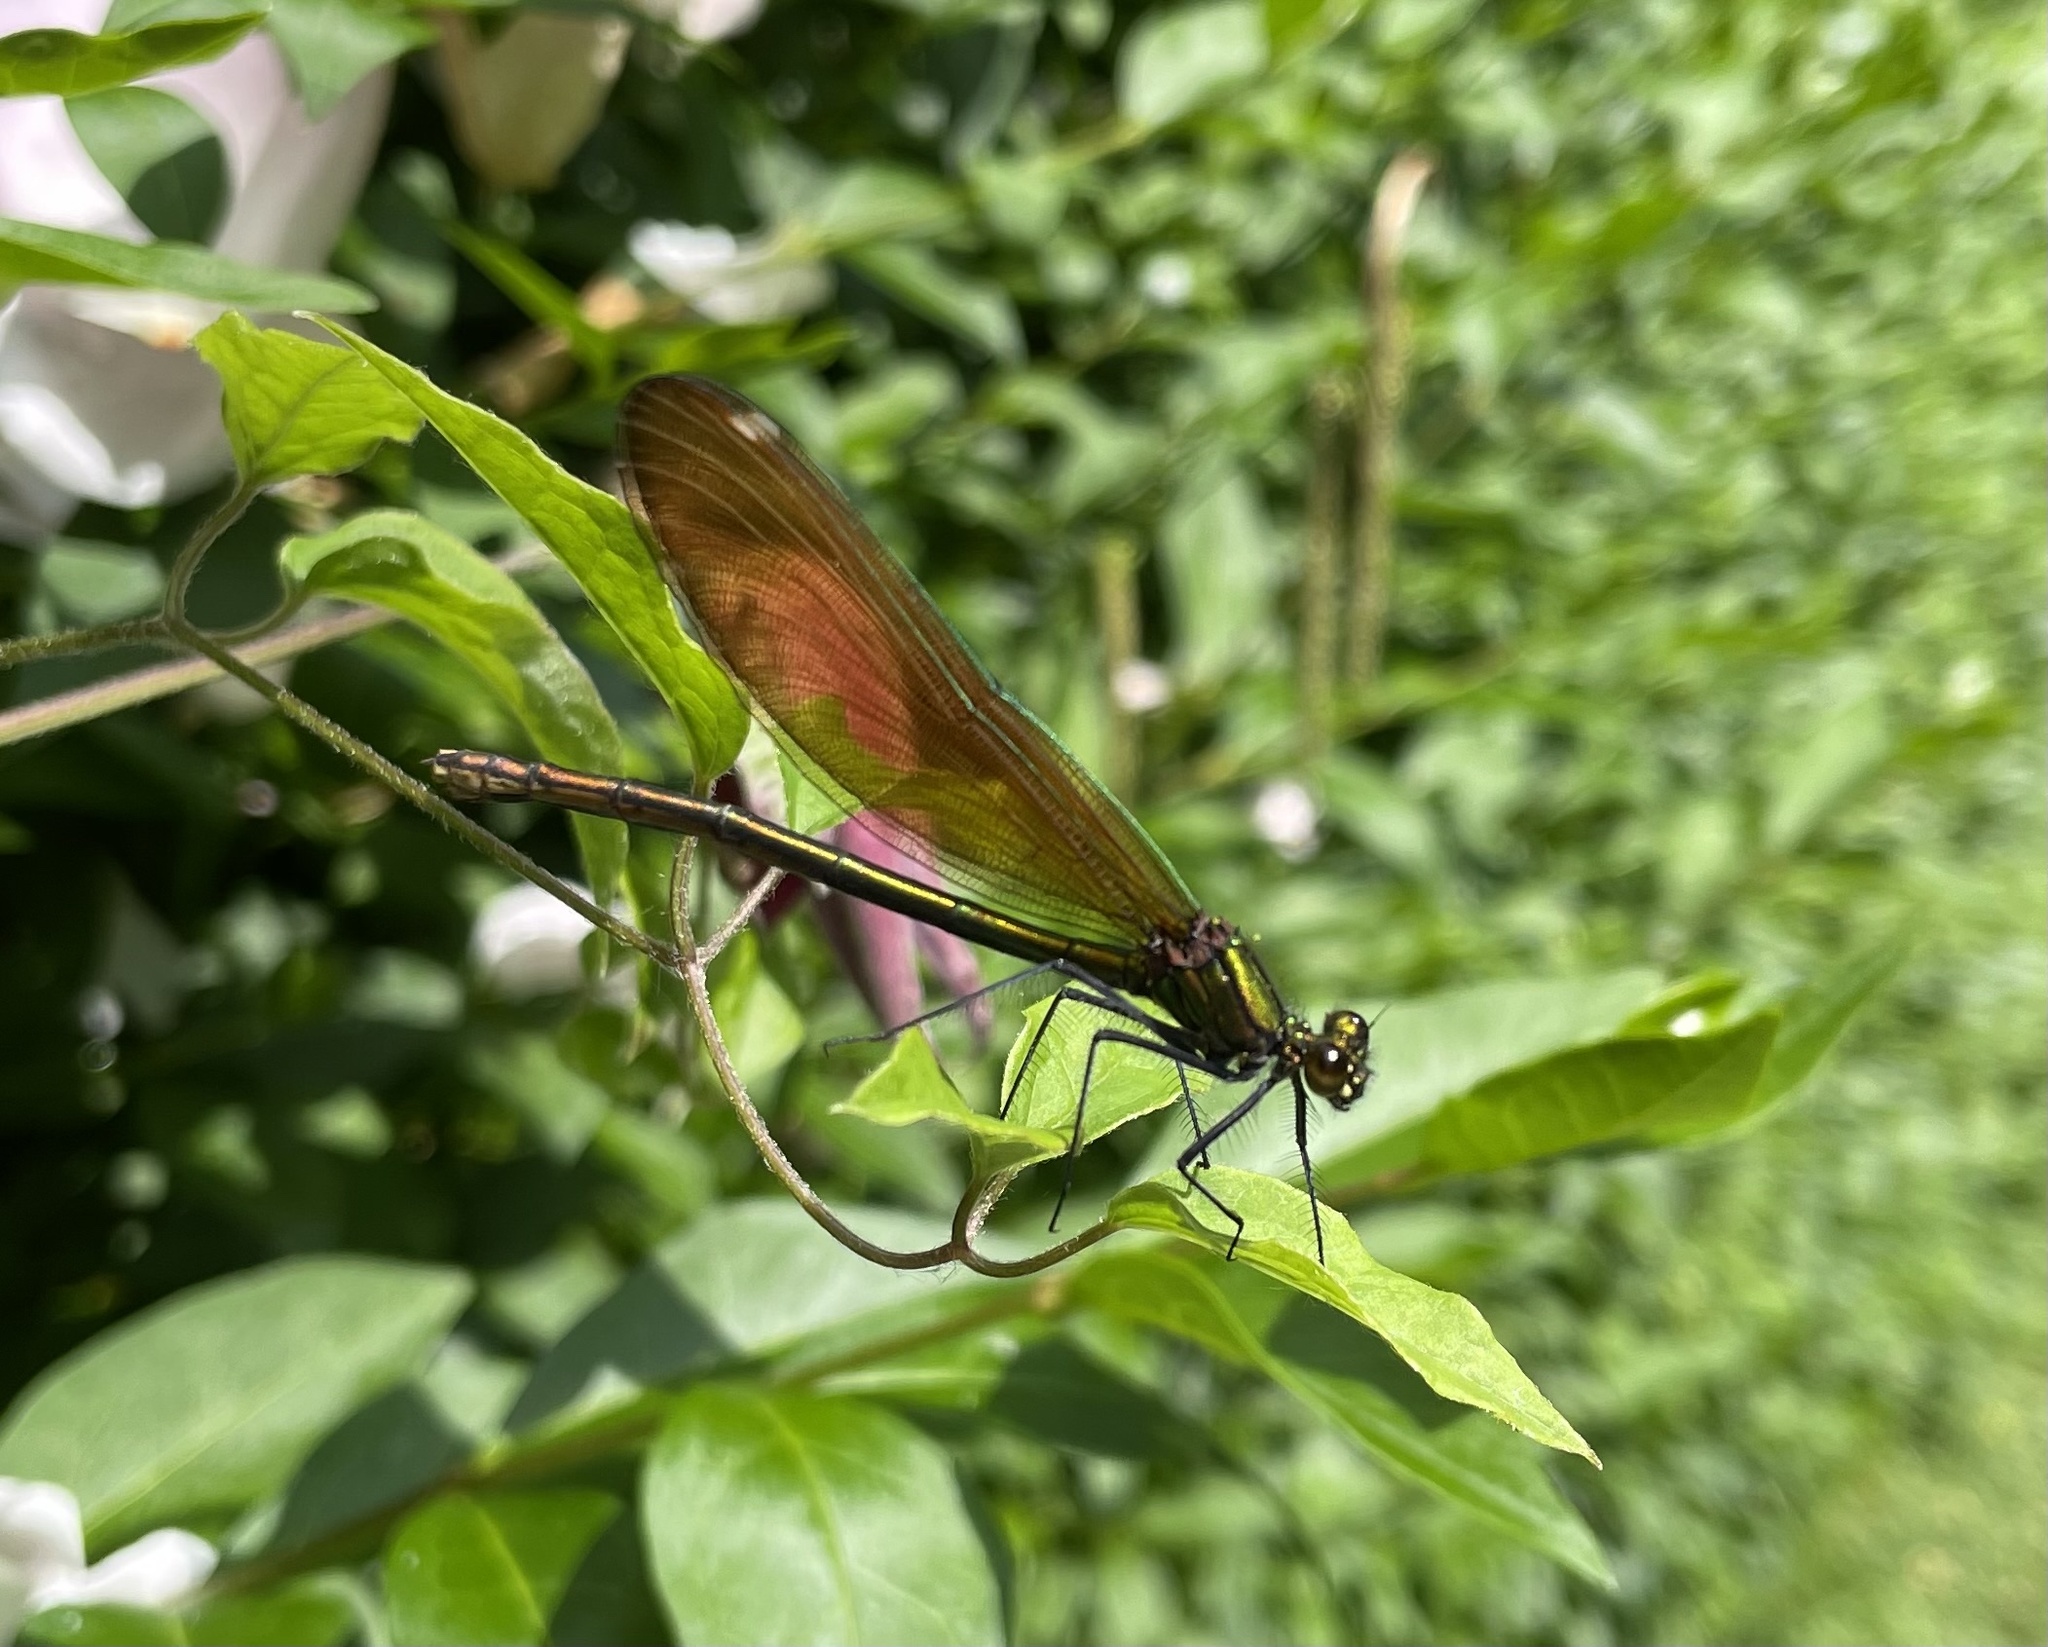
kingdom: Animalia
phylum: Arthropoda
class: Insecta
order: Odonata
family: Calopterygidae
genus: Calopteryx
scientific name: Calopteryx virgo
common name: Beautiful demoiselle
